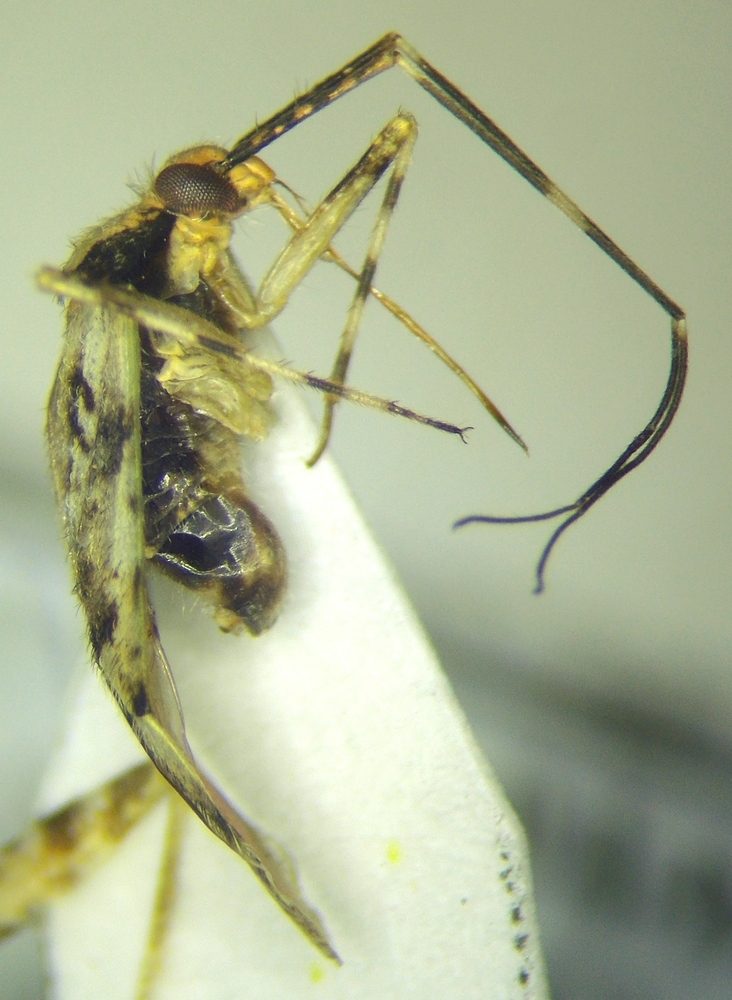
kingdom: Animalia
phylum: Arthropoda
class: Insecta
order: Hemiptera
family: Miridae
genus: Phytocoris
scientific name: Phytocoris tiliae
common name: Plant bug
